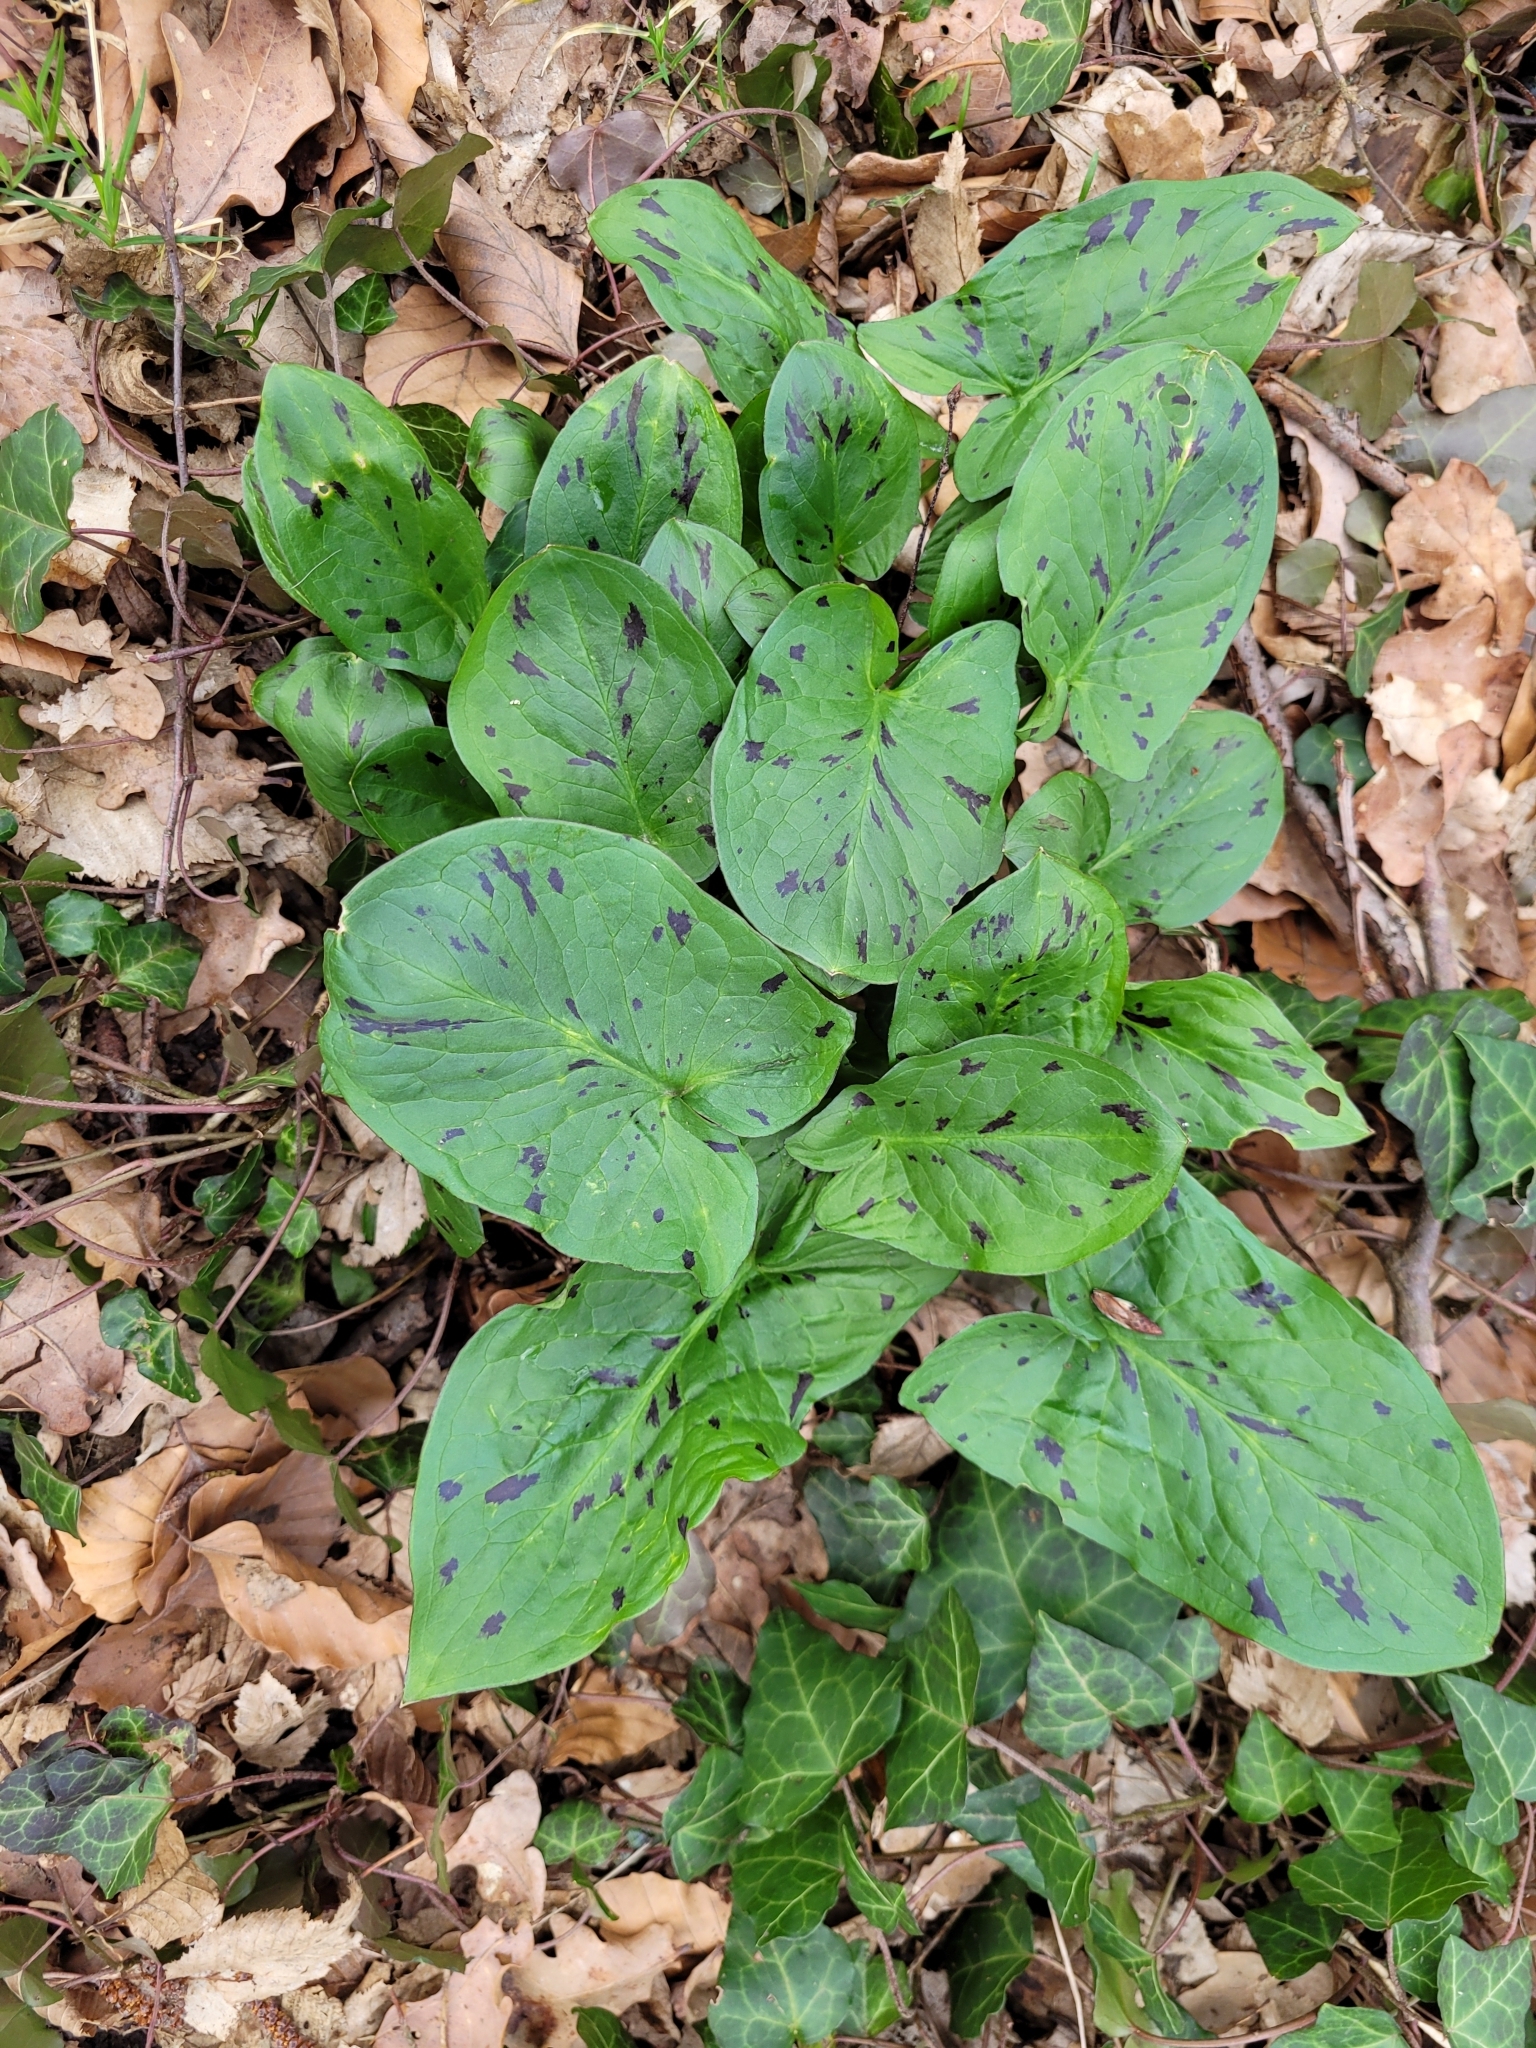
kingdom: Plantae
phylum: Tracheophyta
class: Liliopsida
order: Alismatales
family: Araceae
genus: Arum
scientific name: Arum maculatum
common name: Lords-and-ladies
